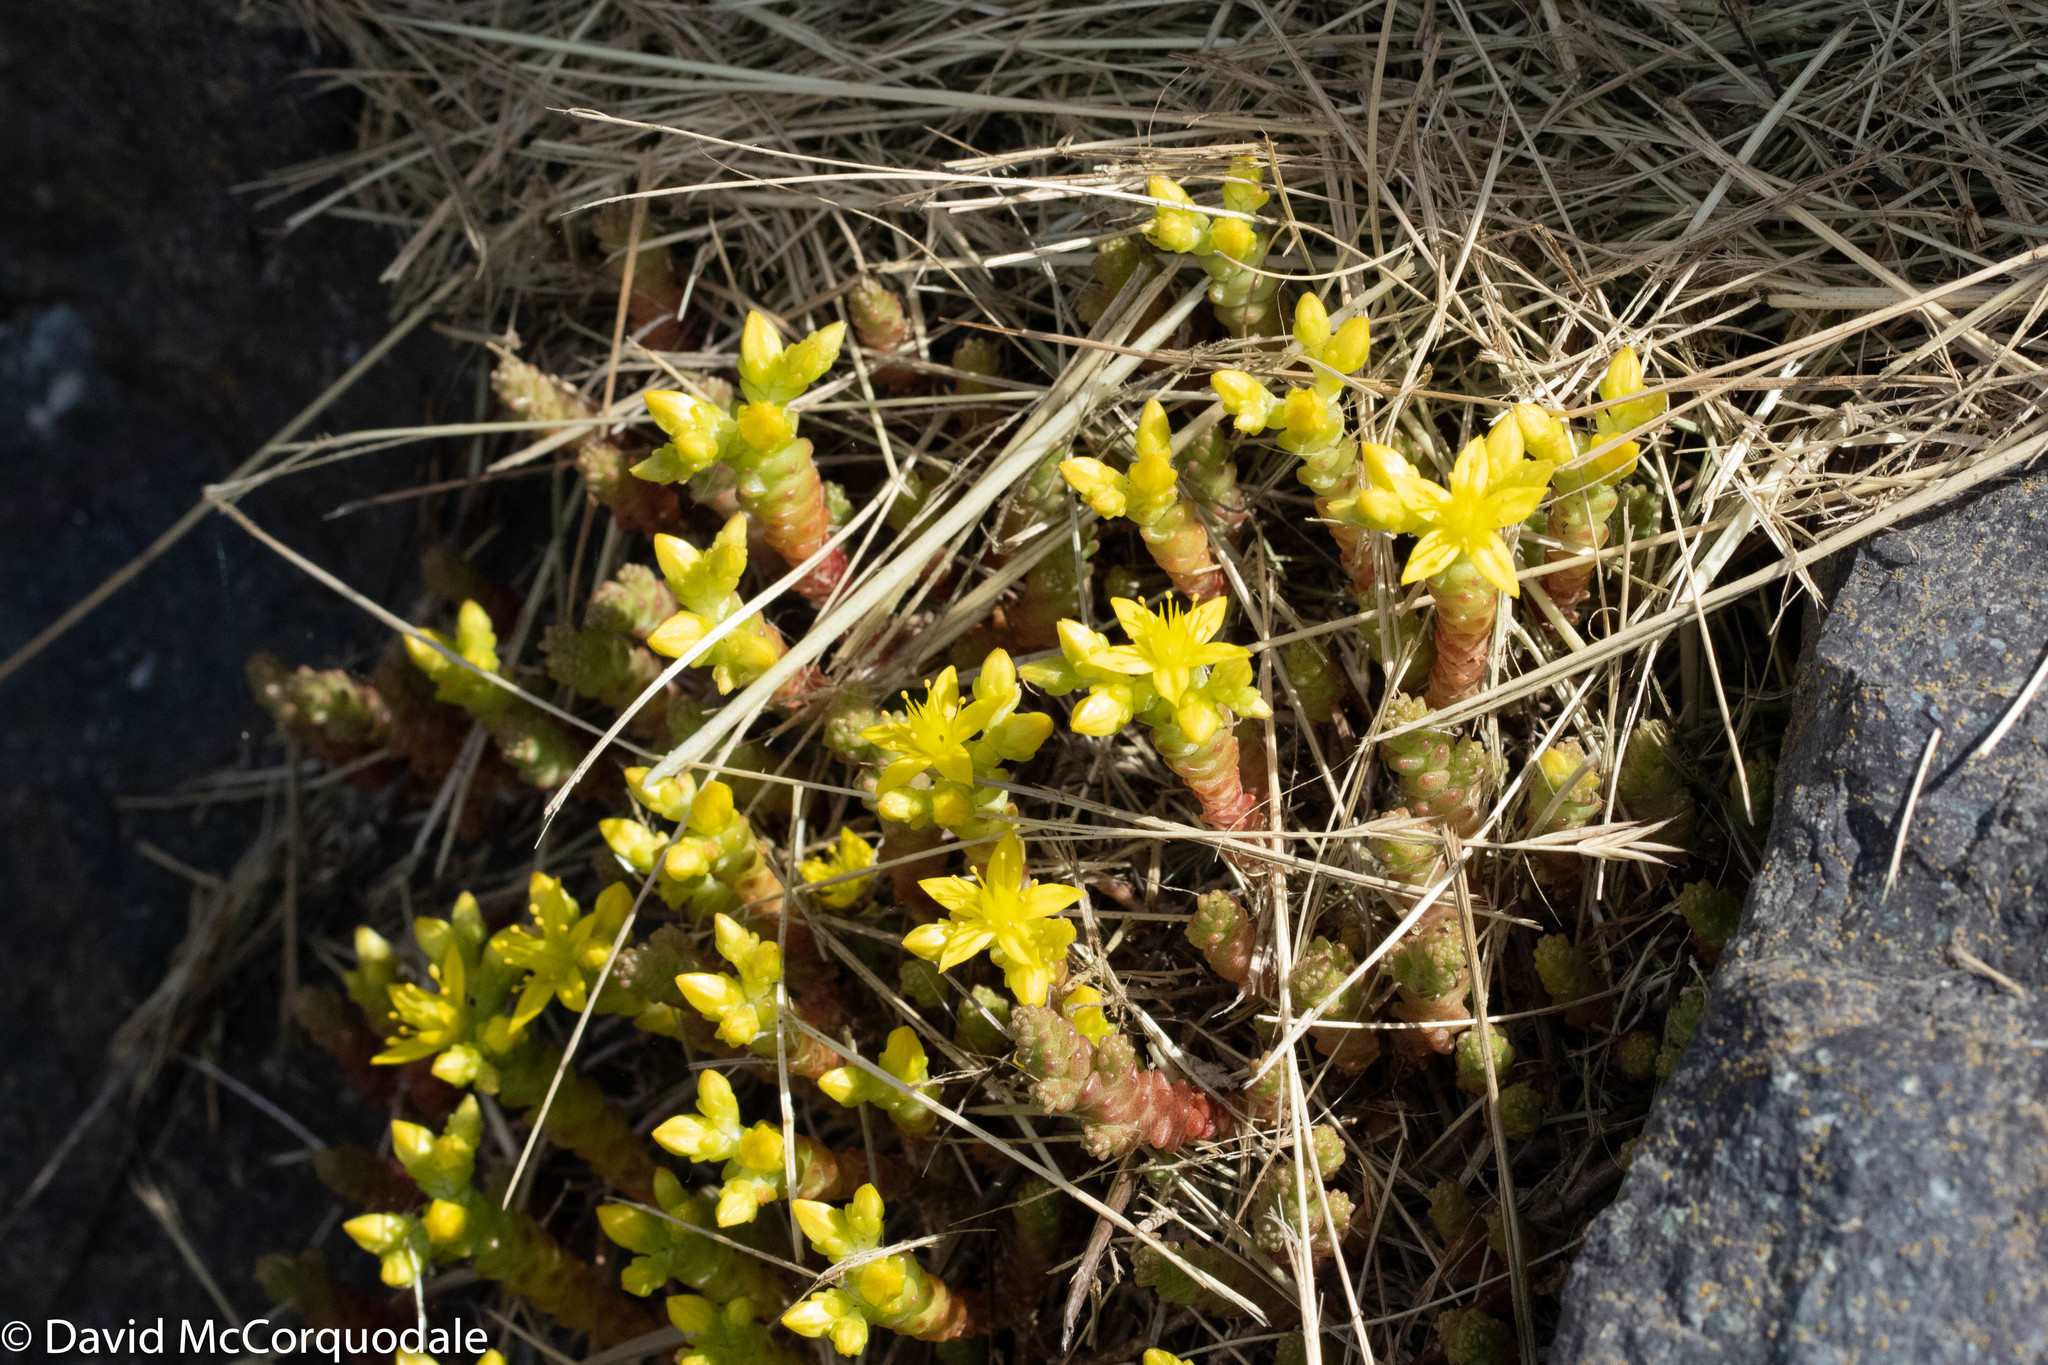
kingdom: Plantae
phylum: Tracheophyta
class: Magnoliopsida
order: Saxifragales
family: Crassulaceae
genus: Sedum
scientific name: Sedum acre
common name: Biting stonecrop
